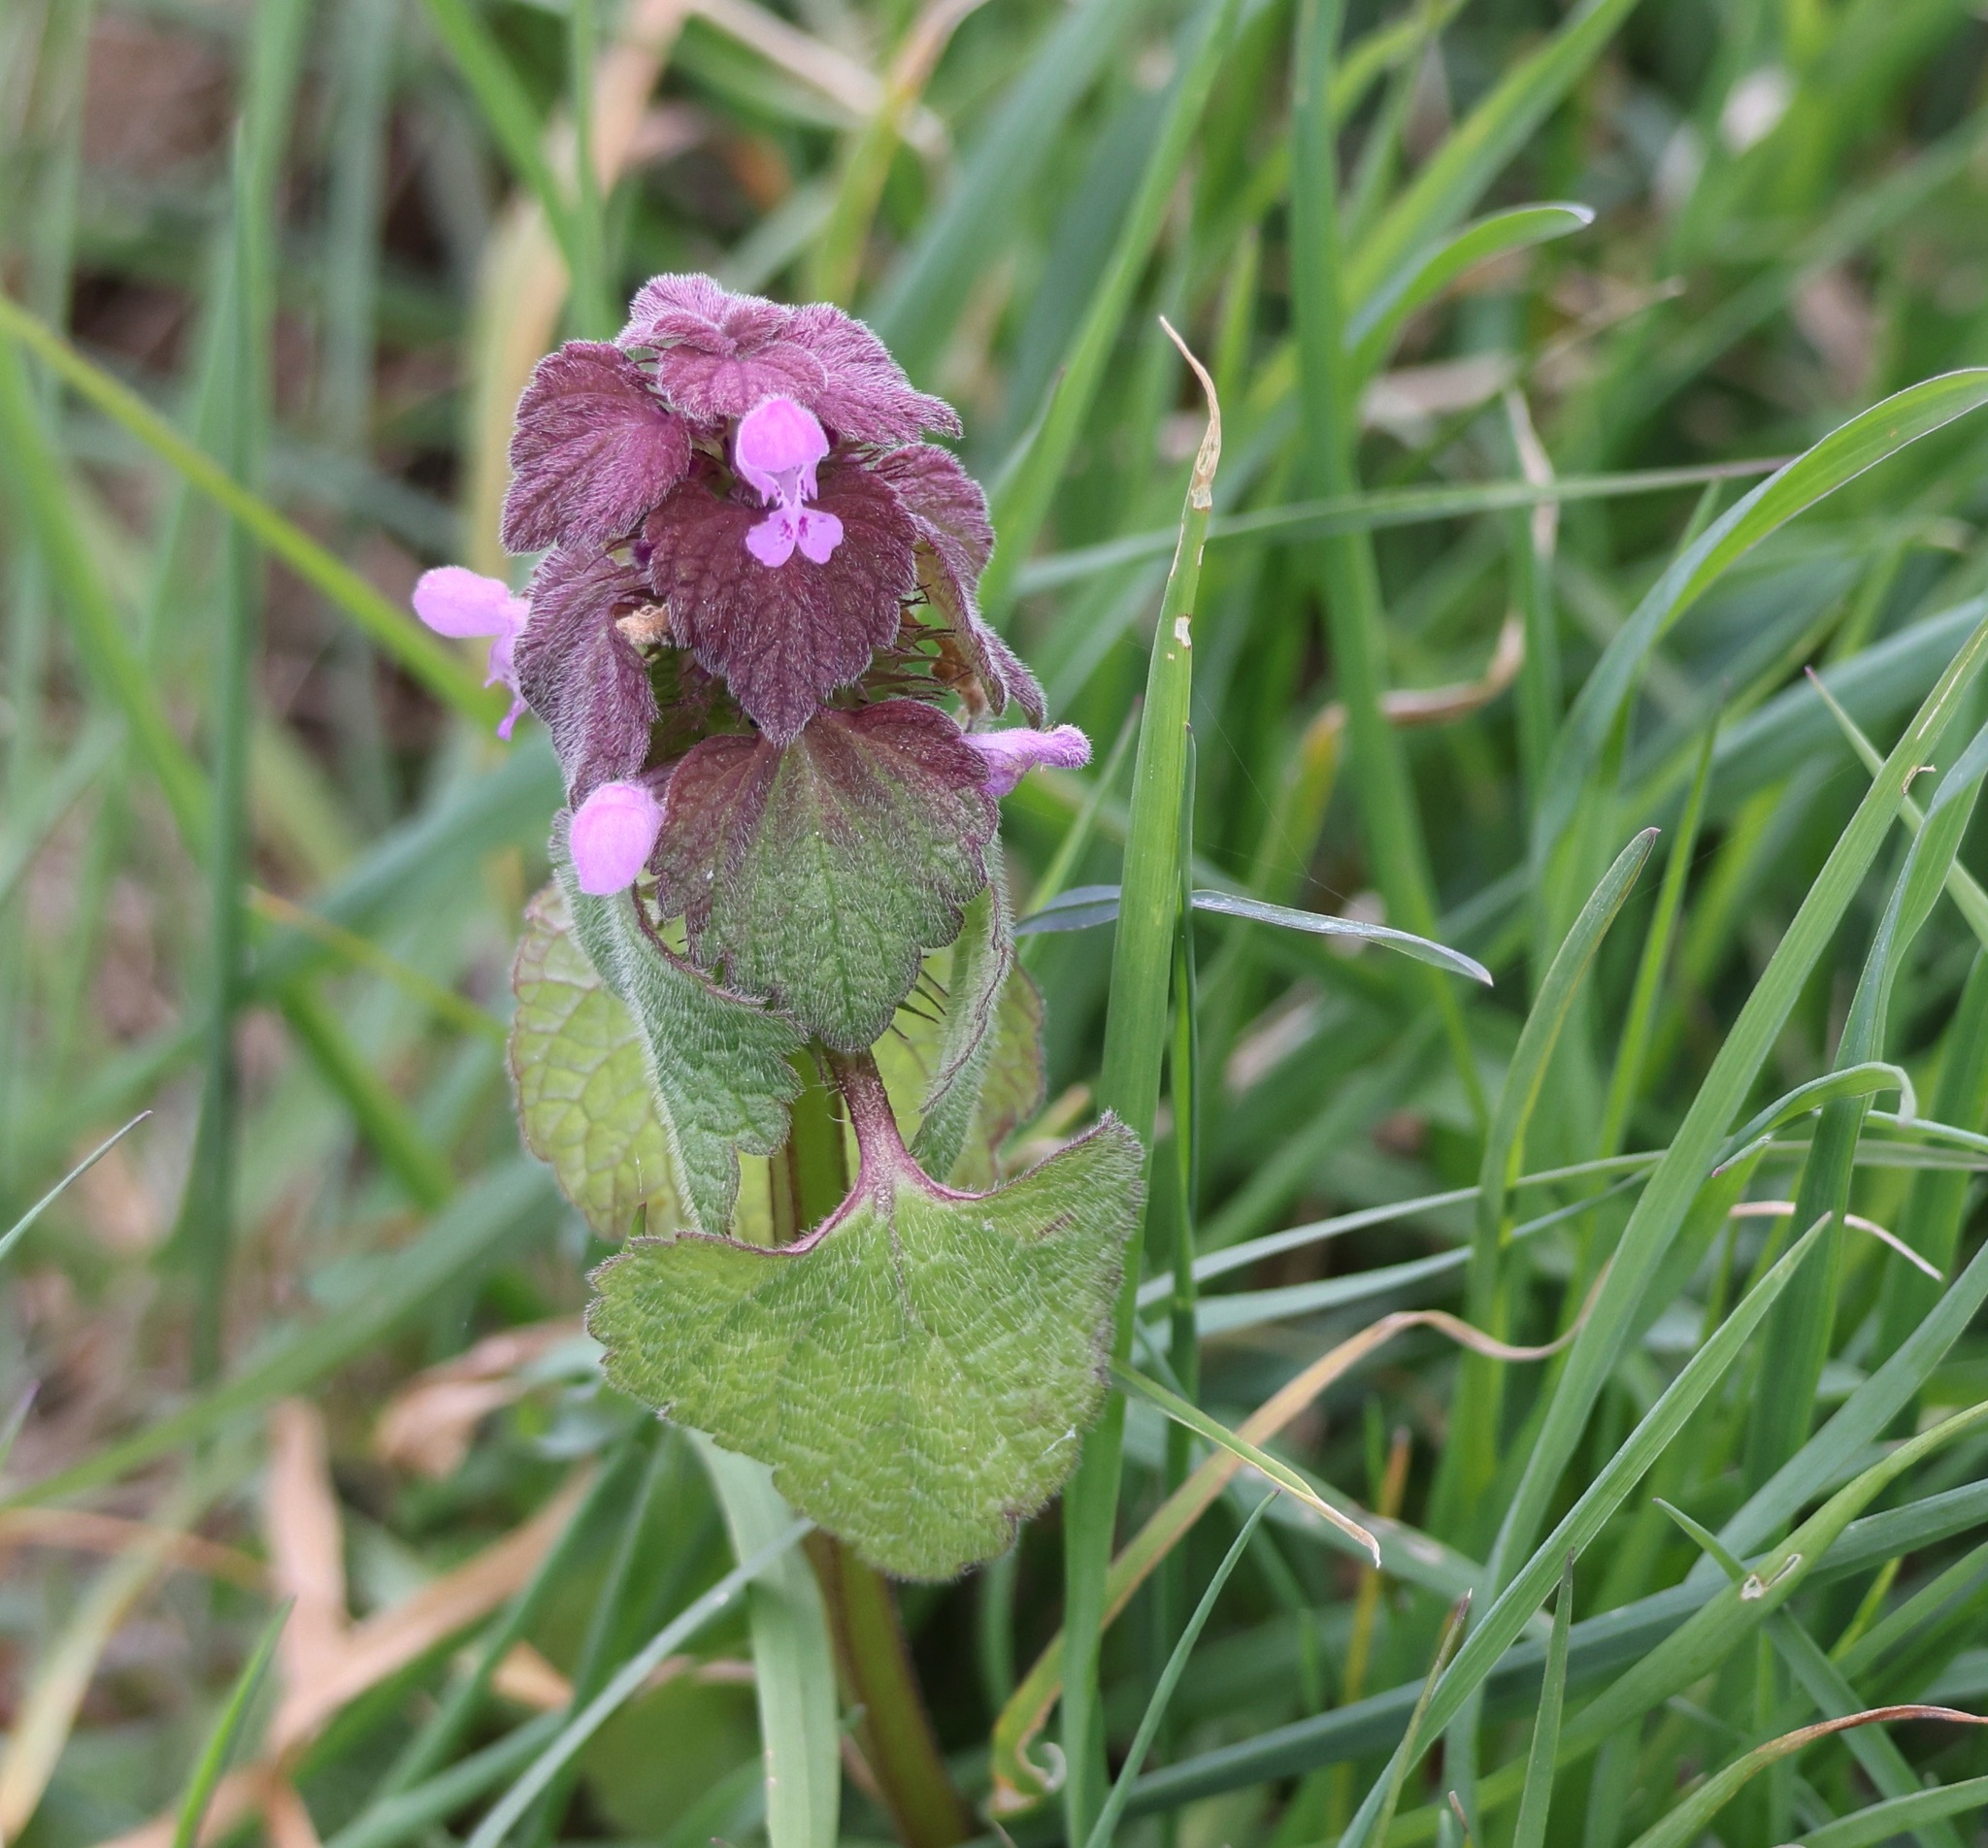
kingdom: Plantae
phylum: Tracheophyta
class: Magnoliopsida
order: Lamiales
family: Lamiaceae
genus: Lamium
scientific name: Lamium purpureum
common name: Red dead-nettle
